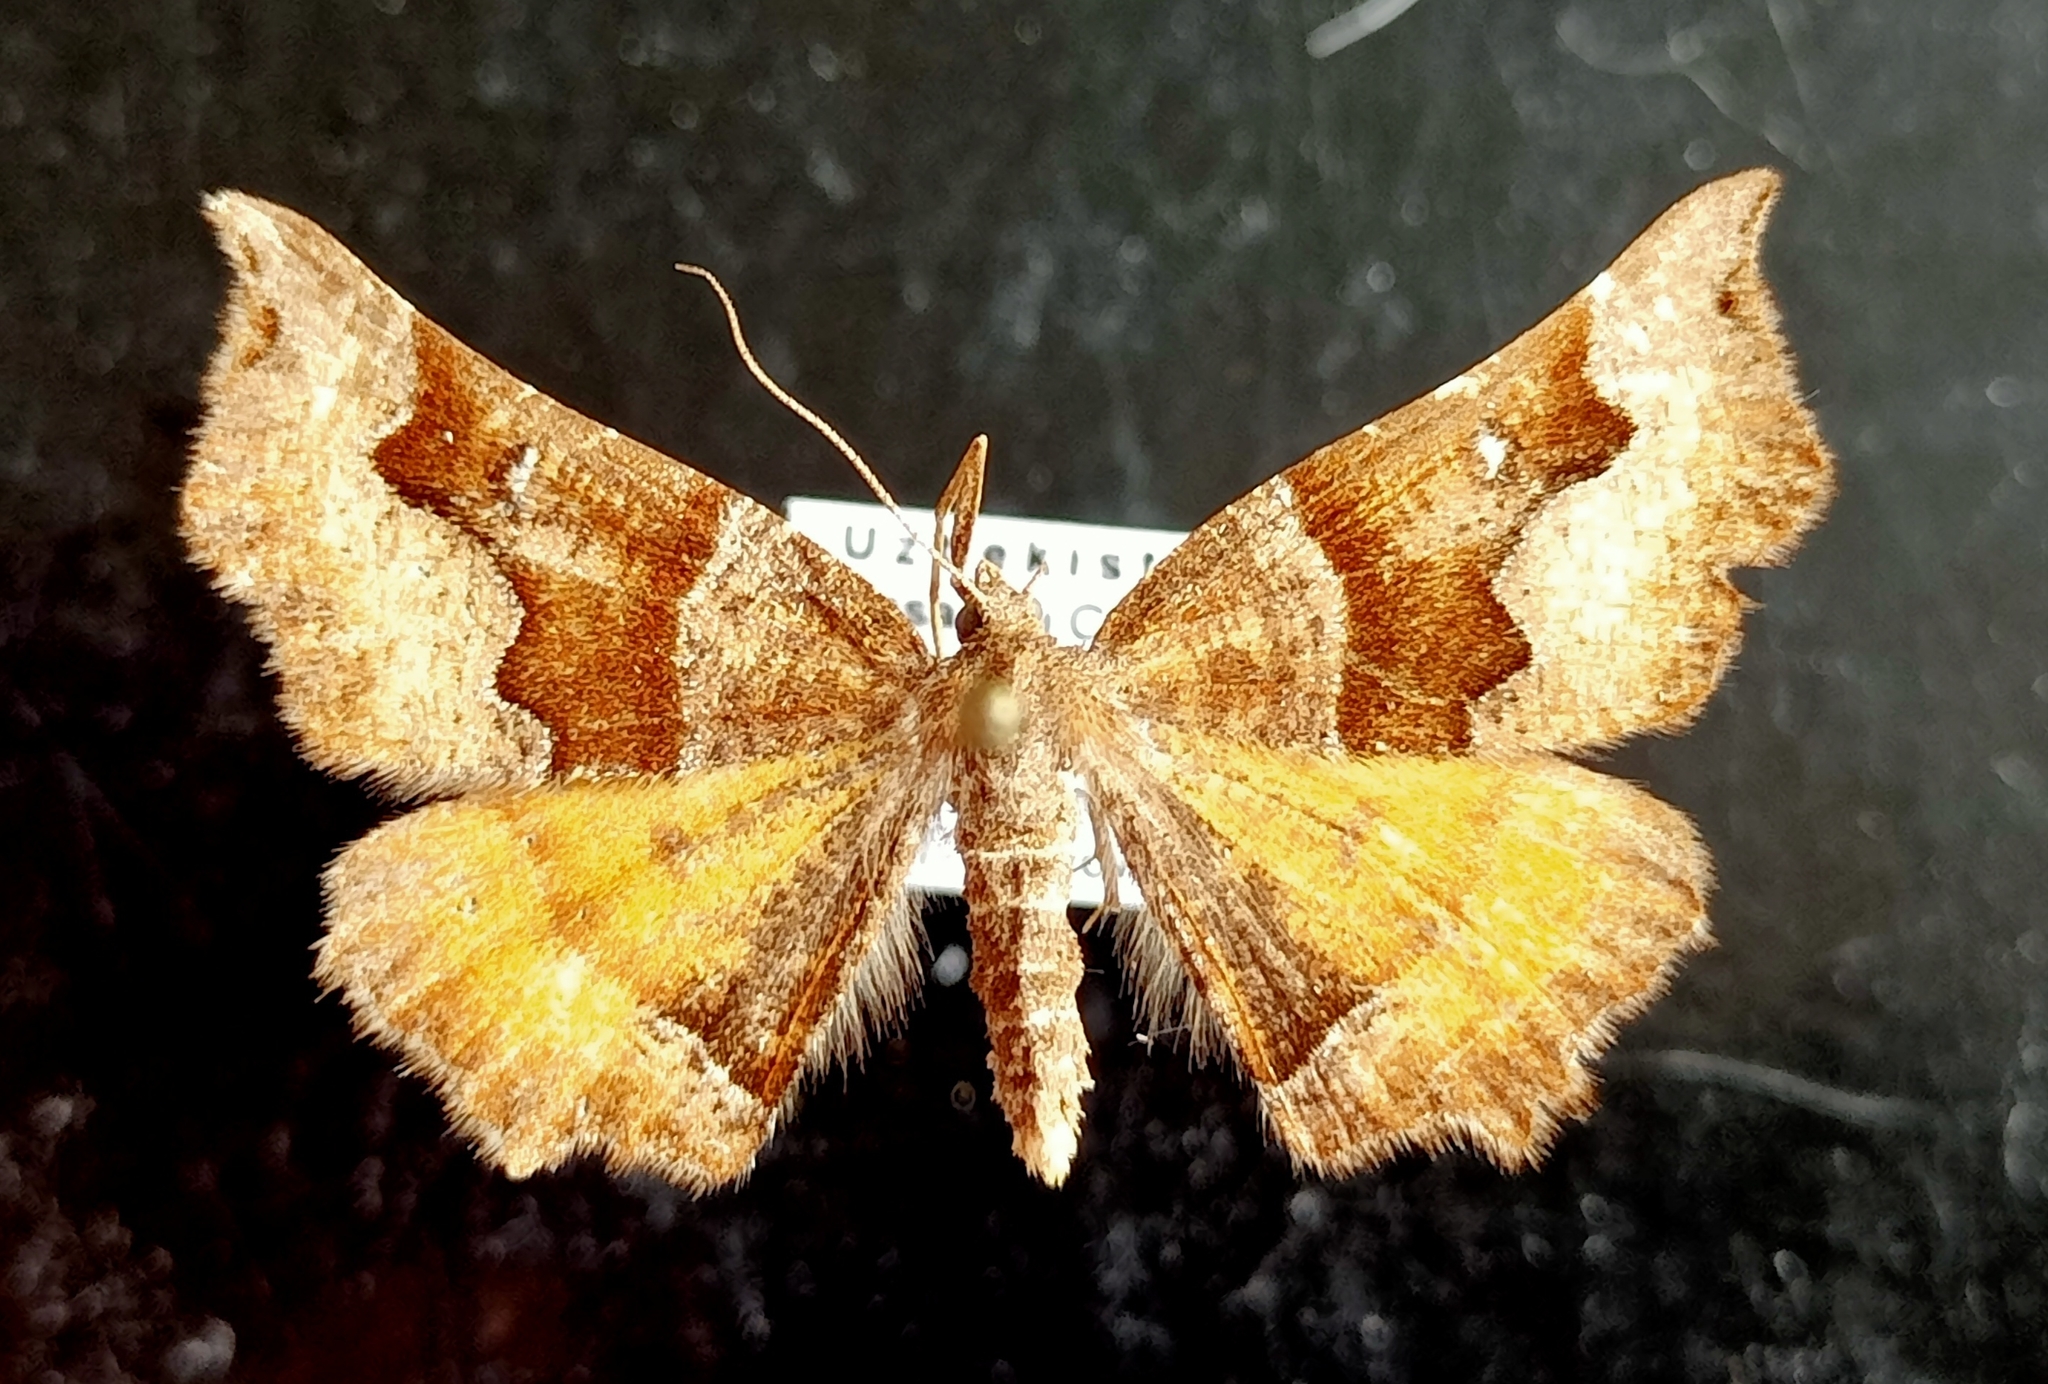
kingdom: Animalia
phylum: Arthropoda
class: Insecta
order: Lepidoptera
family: Geometridae
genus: Artemidora
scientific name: Artemidora maracandaria
